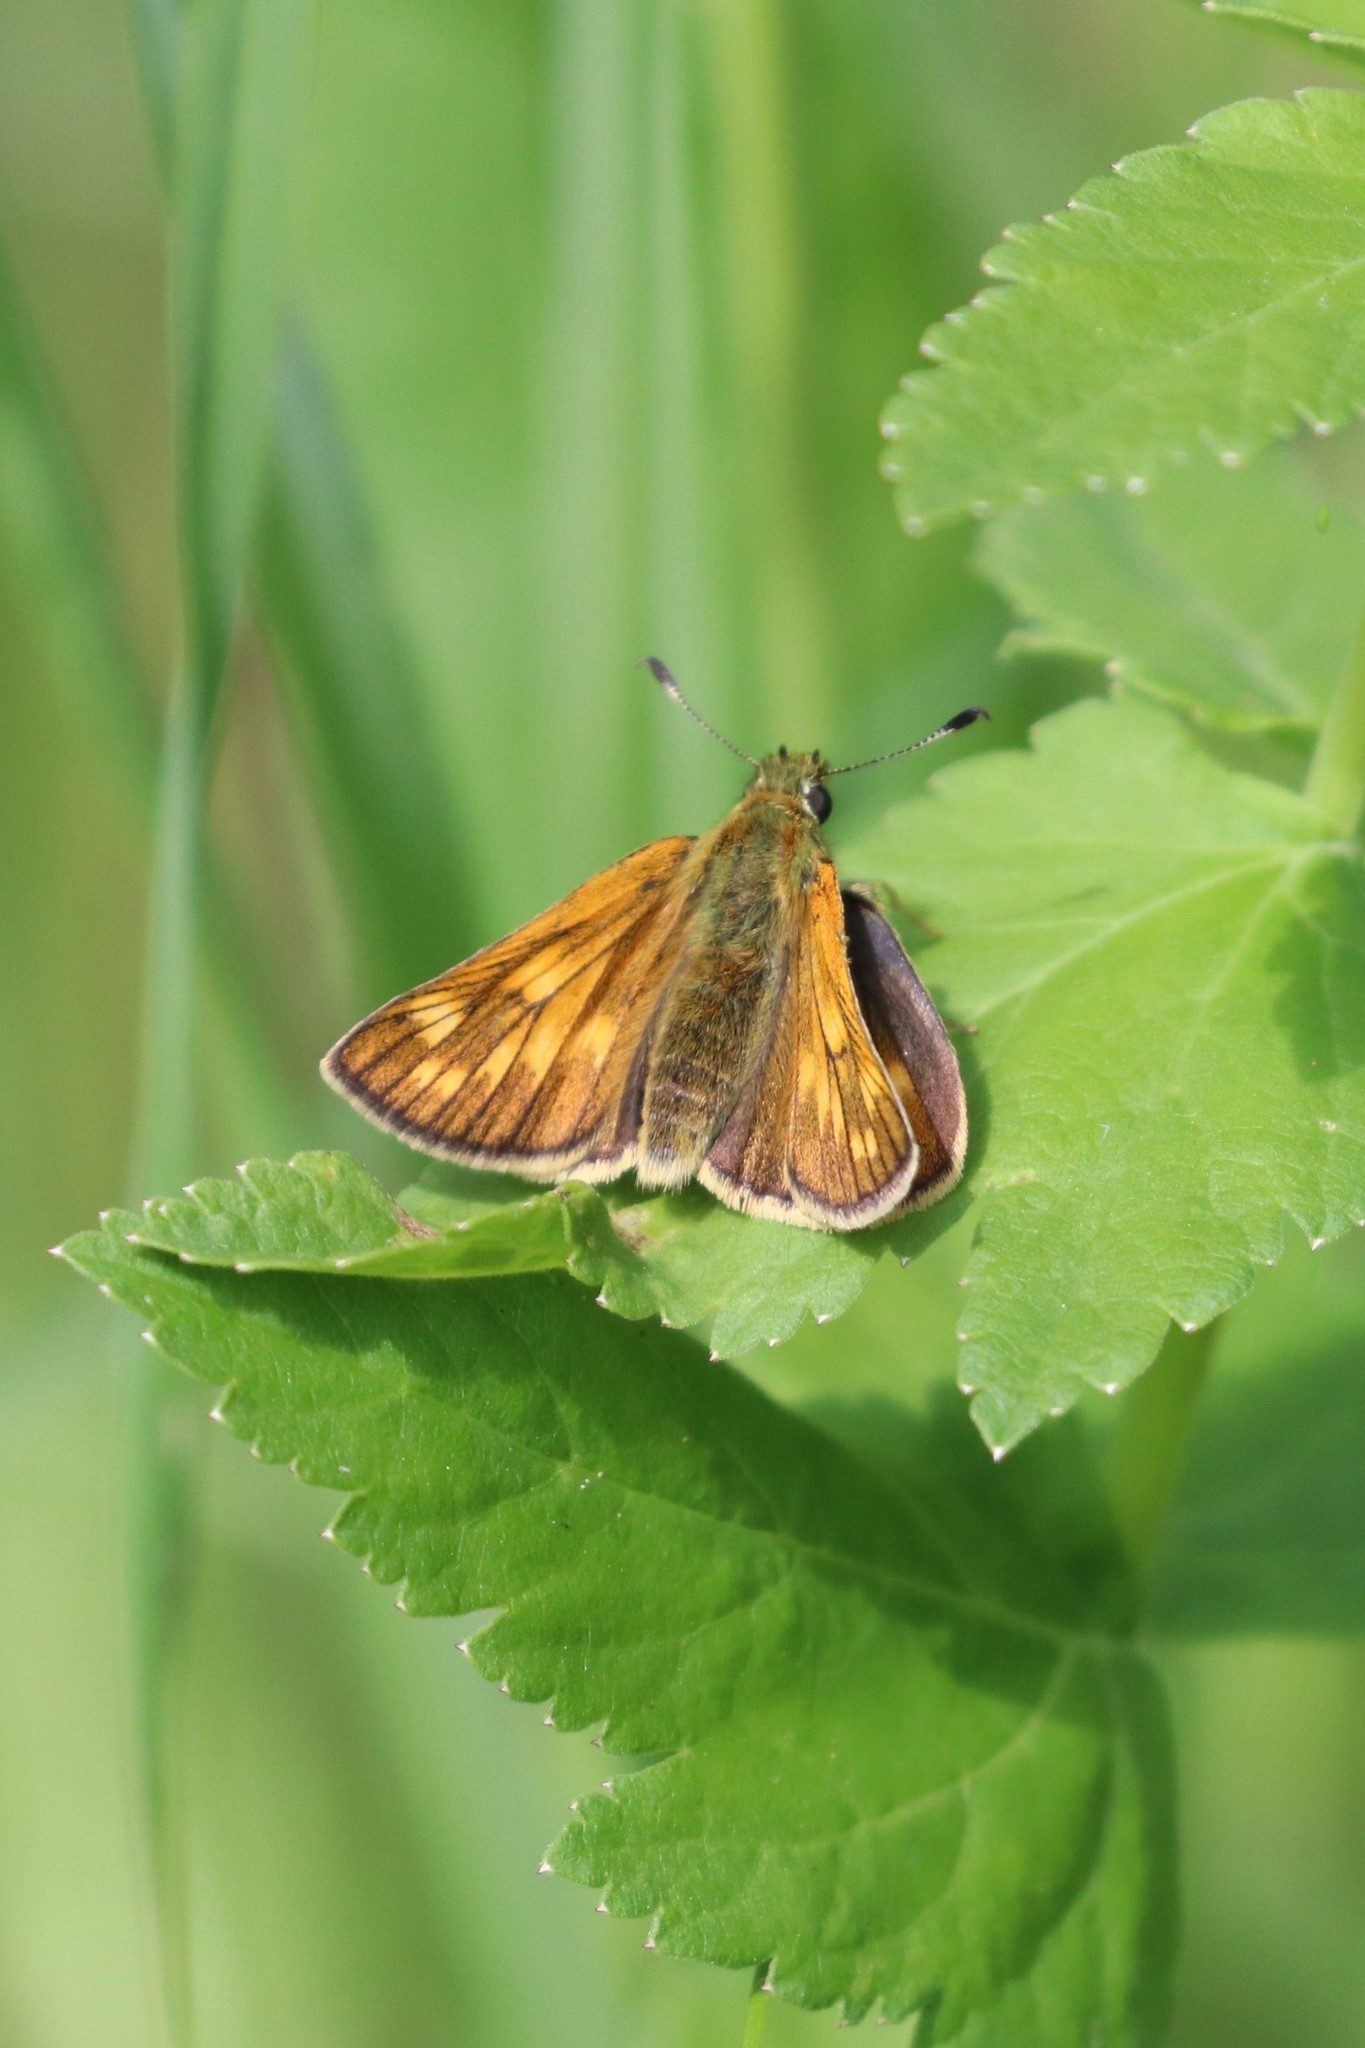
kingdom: Animalia
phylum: Arthropoda
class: Insecta
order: Lepidoptera
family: Hesperiidae
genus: Ochlodes
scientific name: Ochlodes venata
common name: Large skipper
